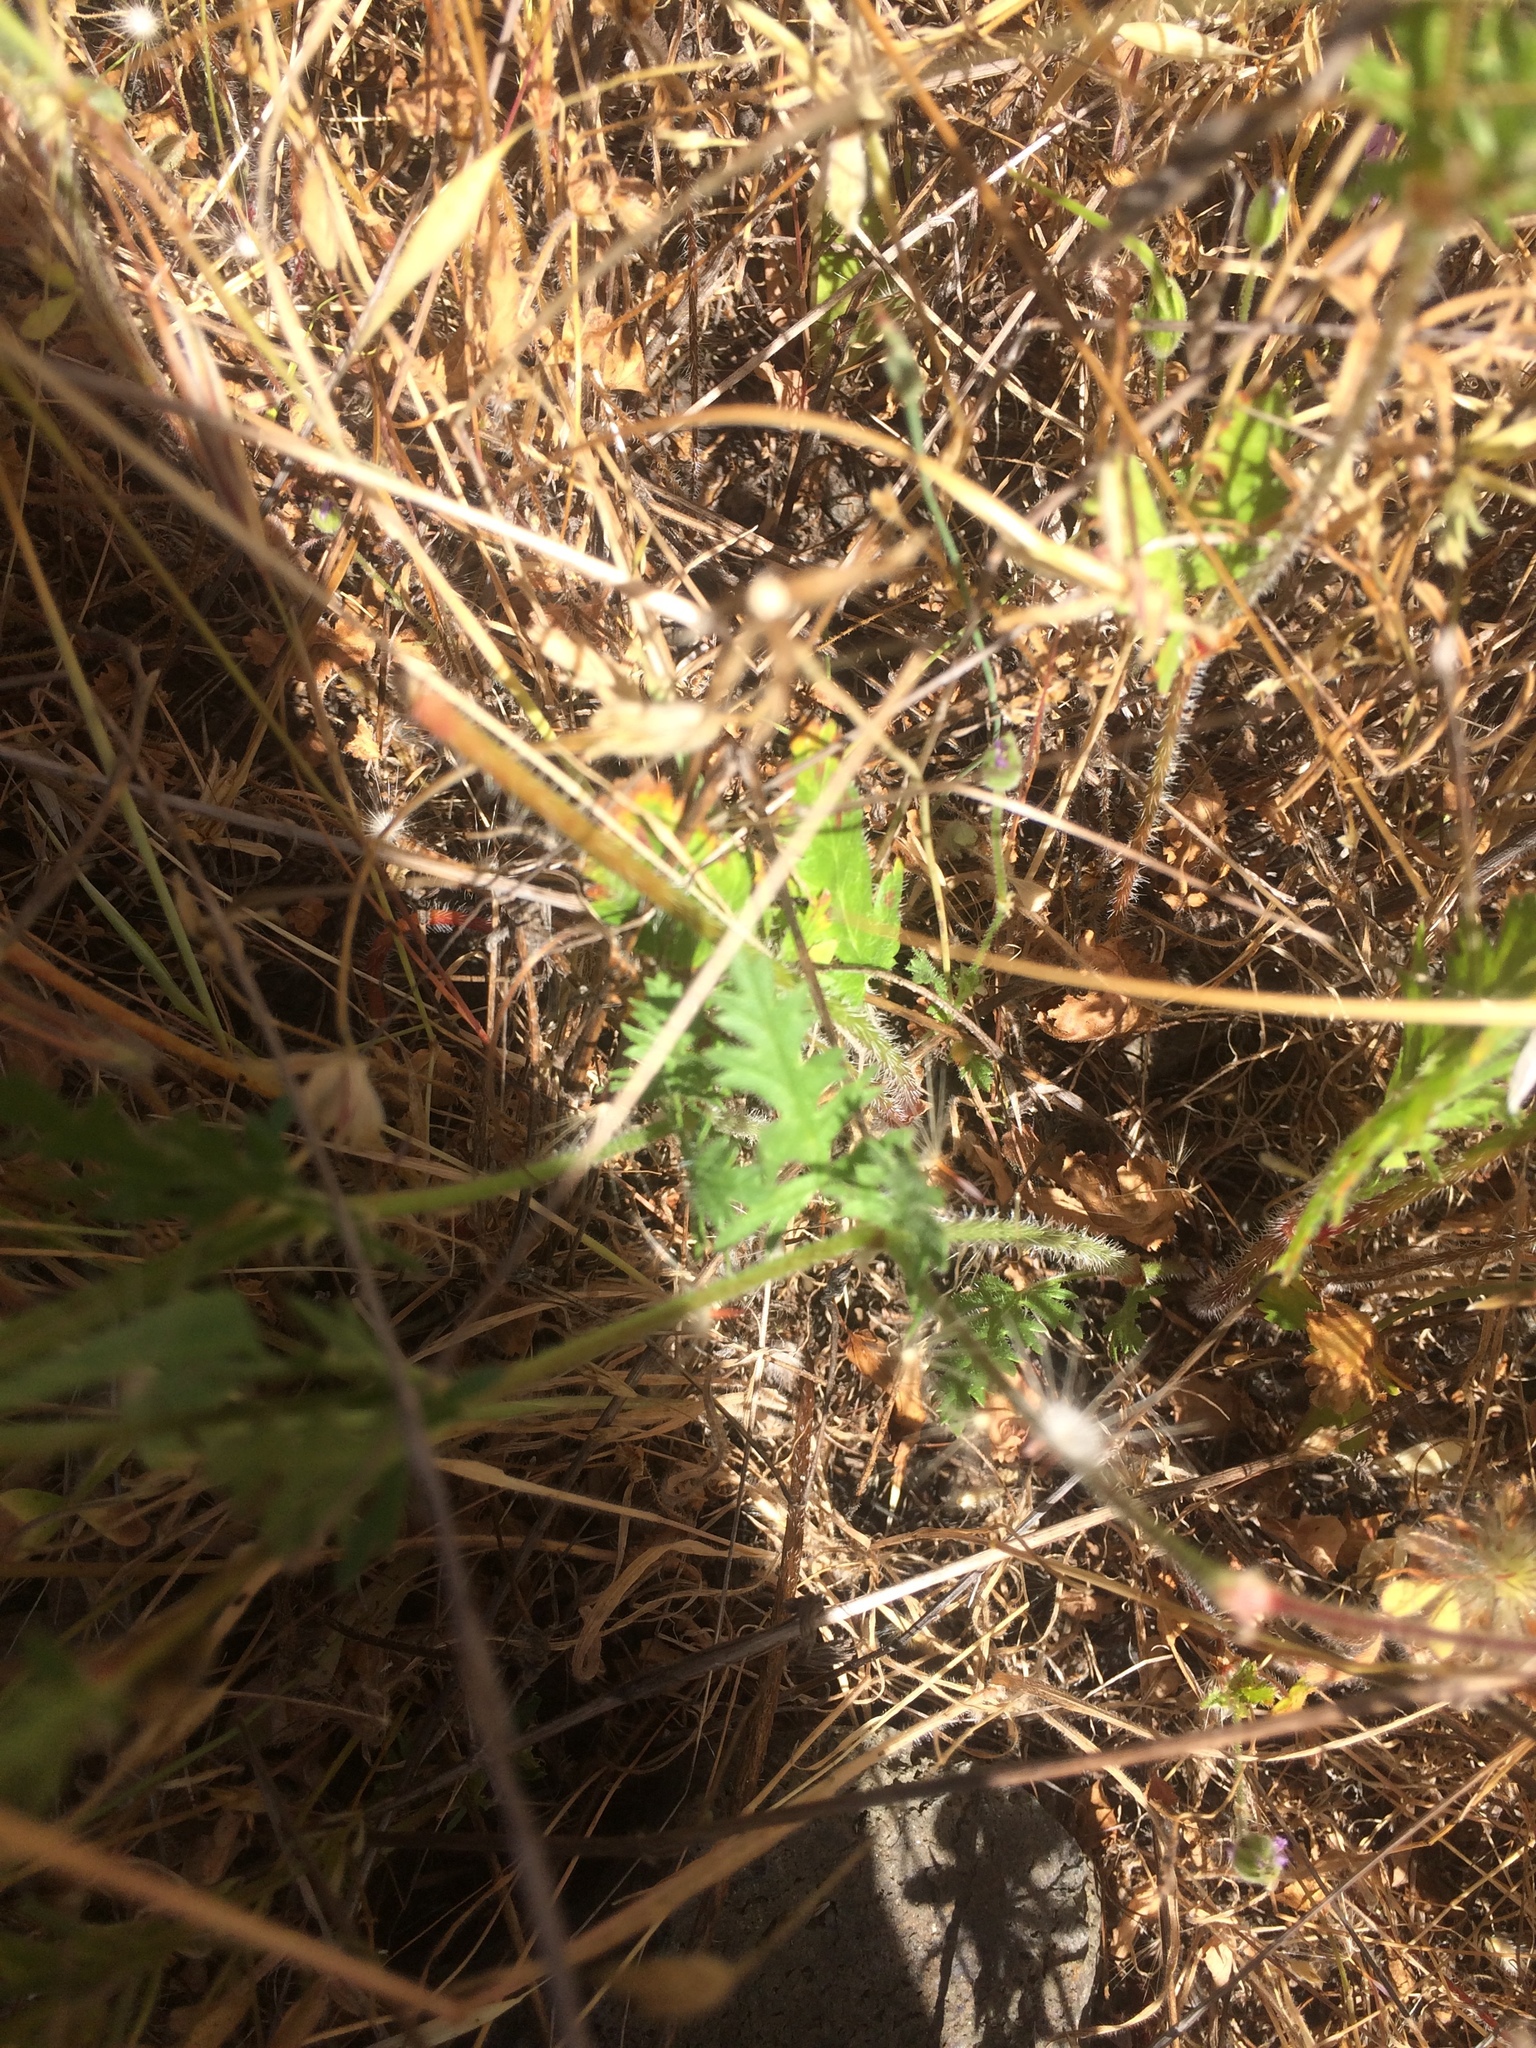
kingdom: Plantae
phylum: Tracheophyta
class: Magnoliopsida
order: Geraniales
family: Geraniaceae
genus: Erodium
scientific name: Erodium botrys
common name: Mediterranean stork's-bill
